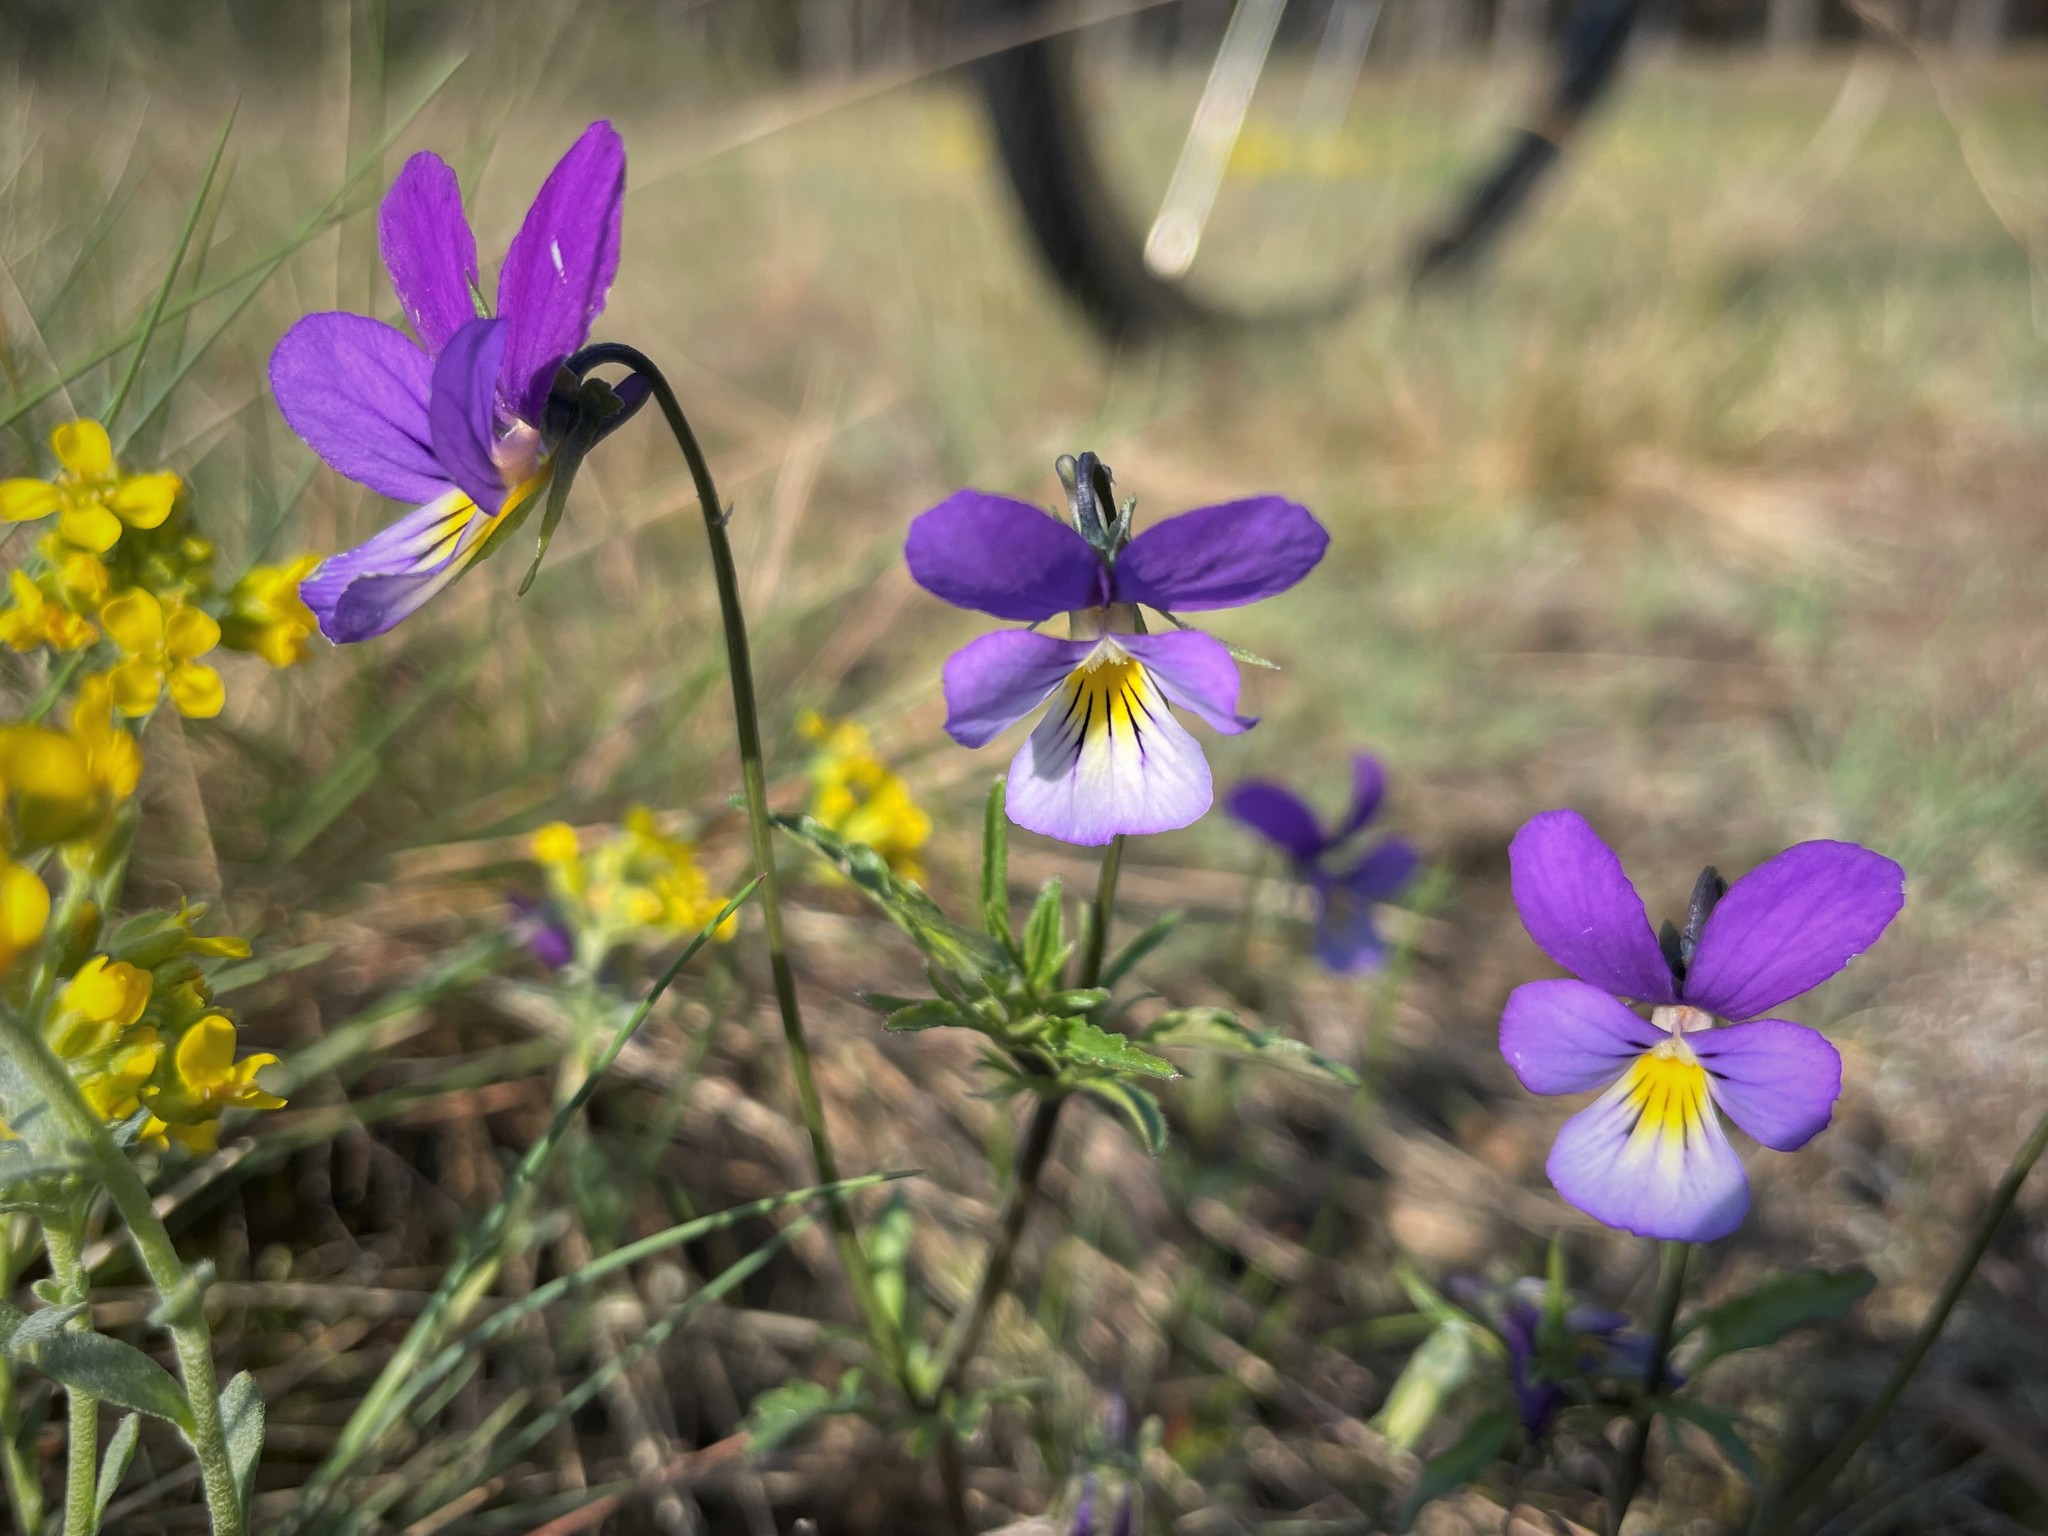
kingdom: Plantae
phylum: Tracheophyta
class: Magnoliopsida
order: Malpighiales
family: Violaceae
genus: Viola
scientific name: Viola tricolor
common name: Pansy
